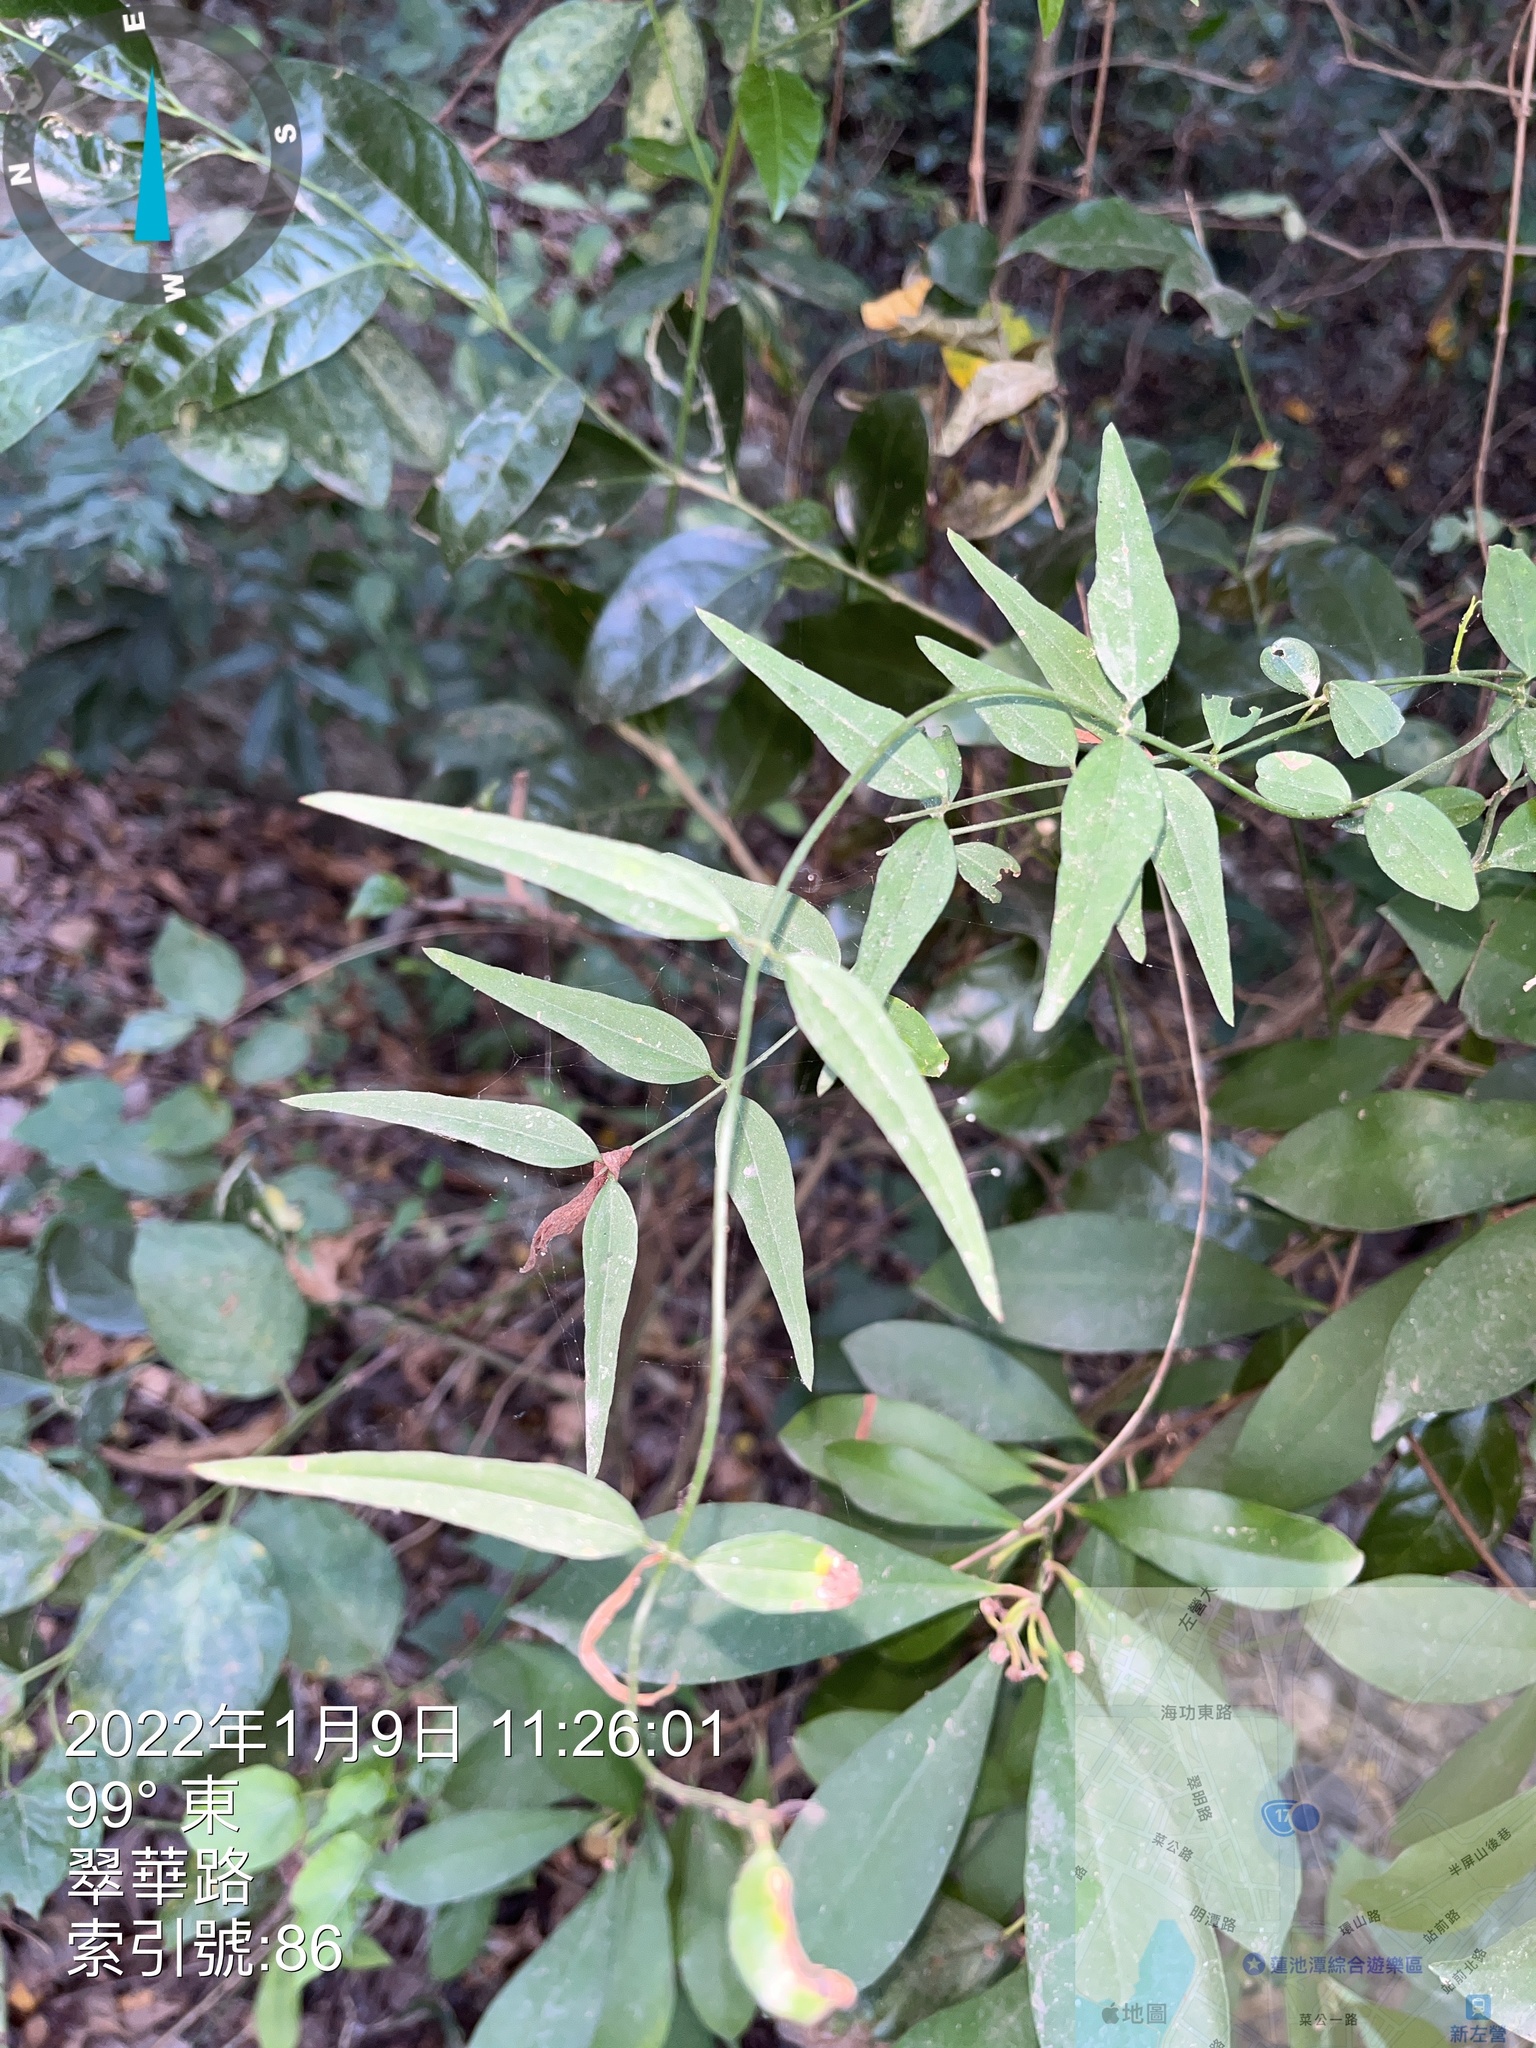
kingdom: Plantae
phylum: Tracheophyta
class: Magnoliopsida
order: Lamiales
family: Oleaceae
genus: Jasminum
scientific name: Jasminum nervosum
